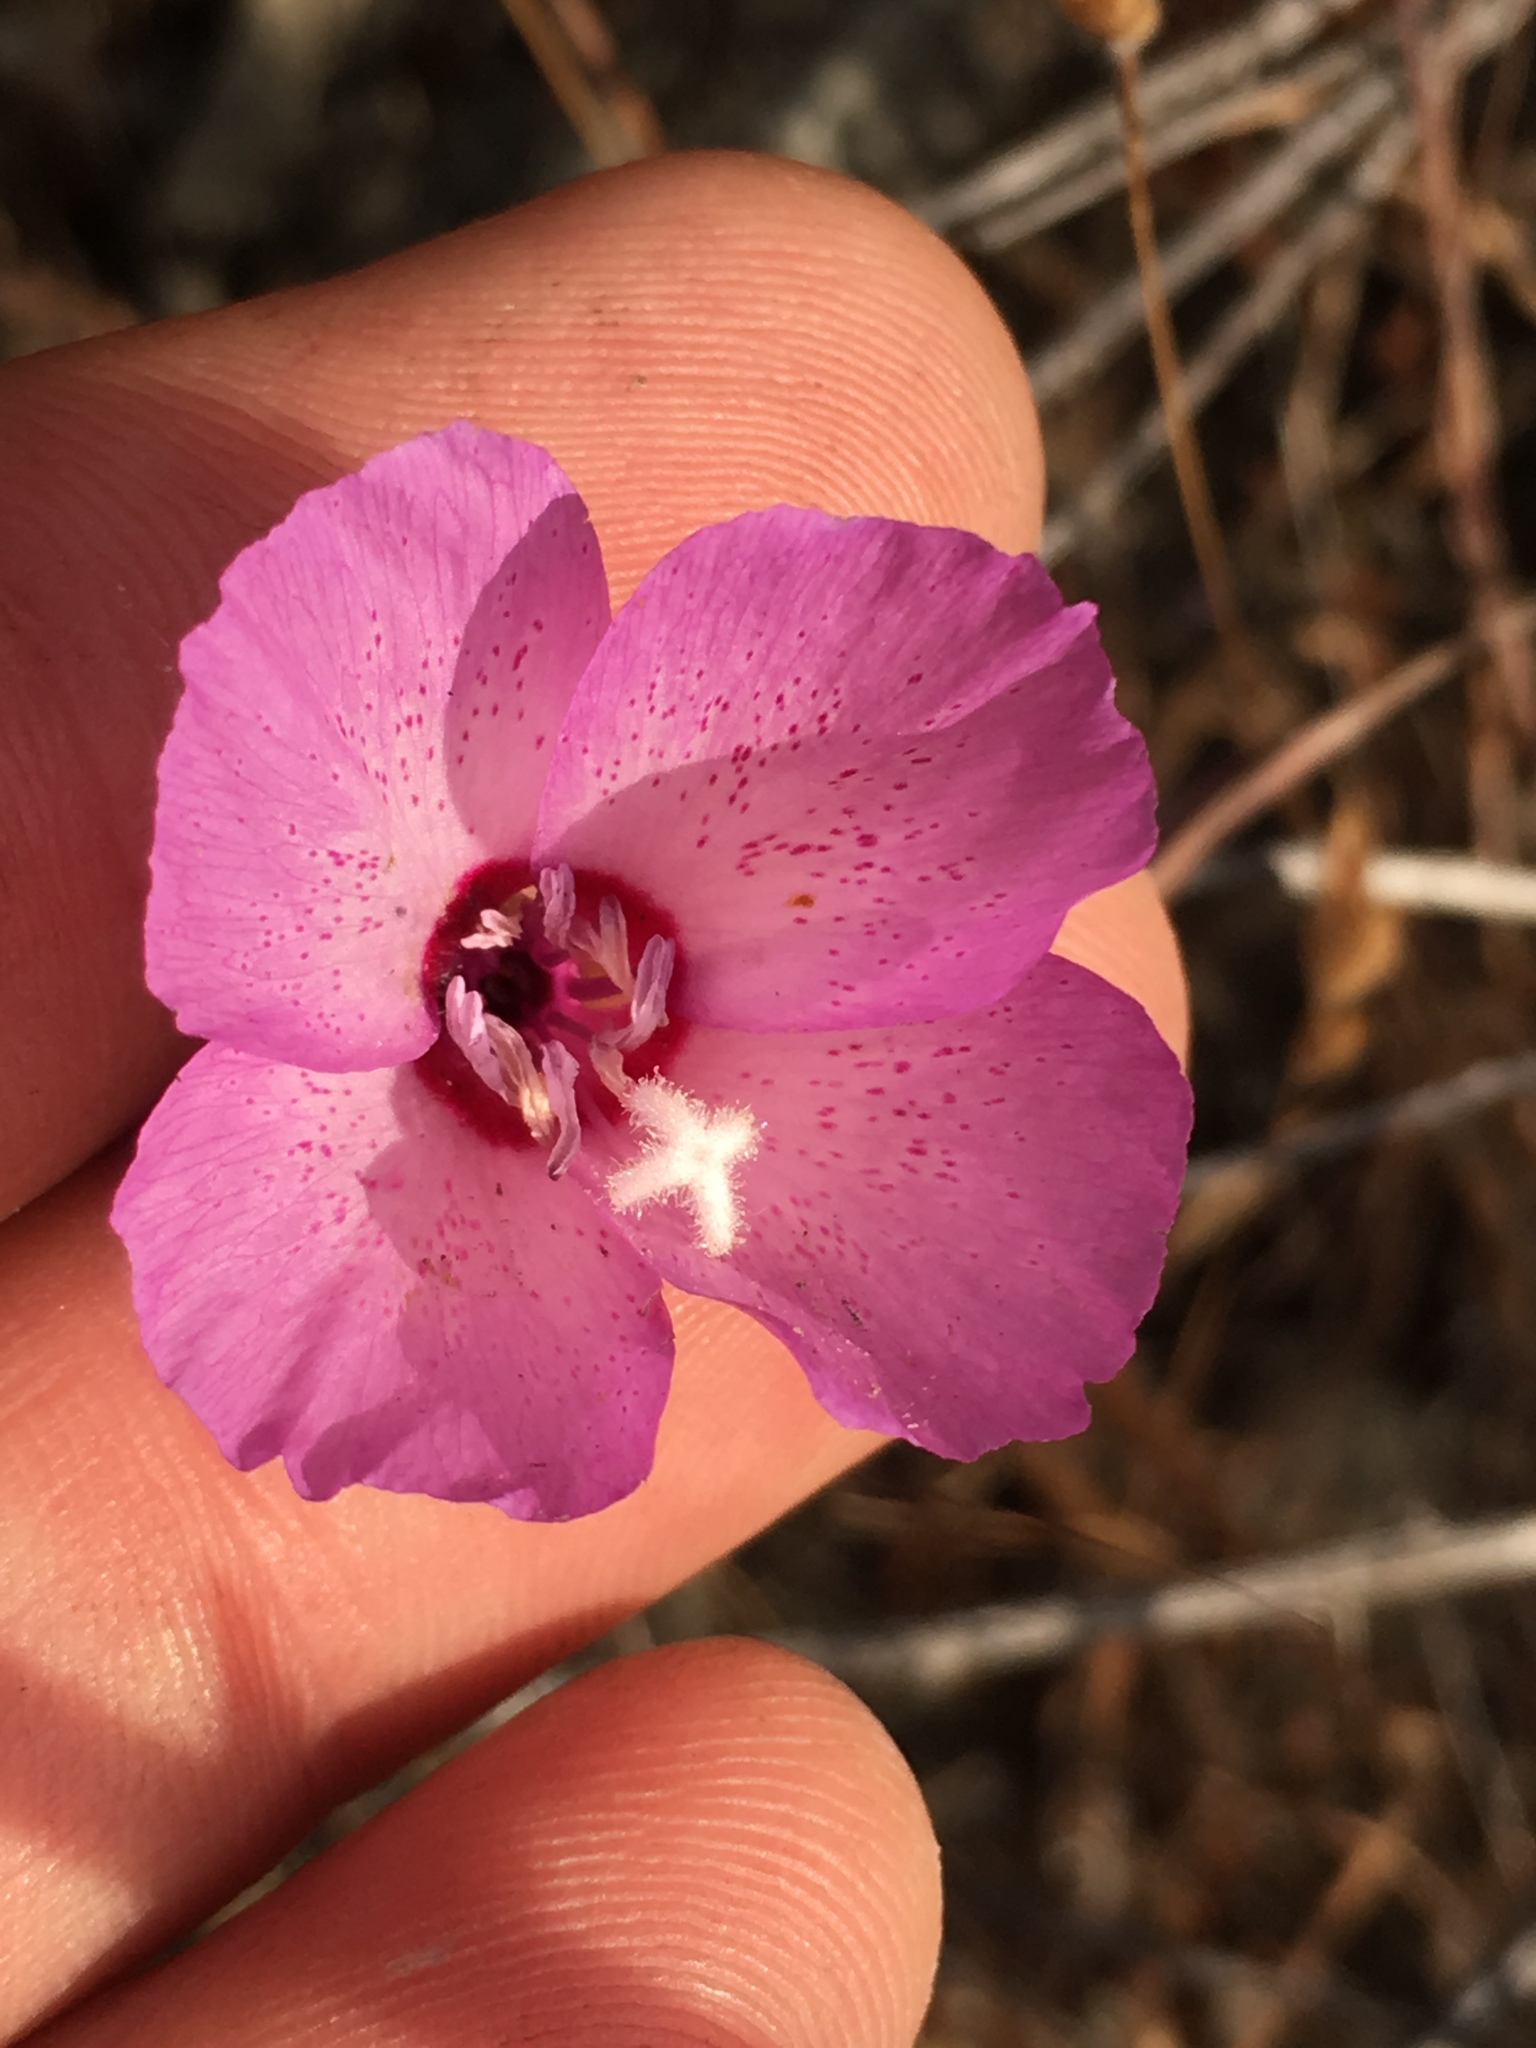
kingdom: Plantae
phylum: Tracheophyta
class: Magnoliopsida
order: Myrtales
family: Onagraceae
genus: Clarkia
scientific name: Clarkia cylindrica
